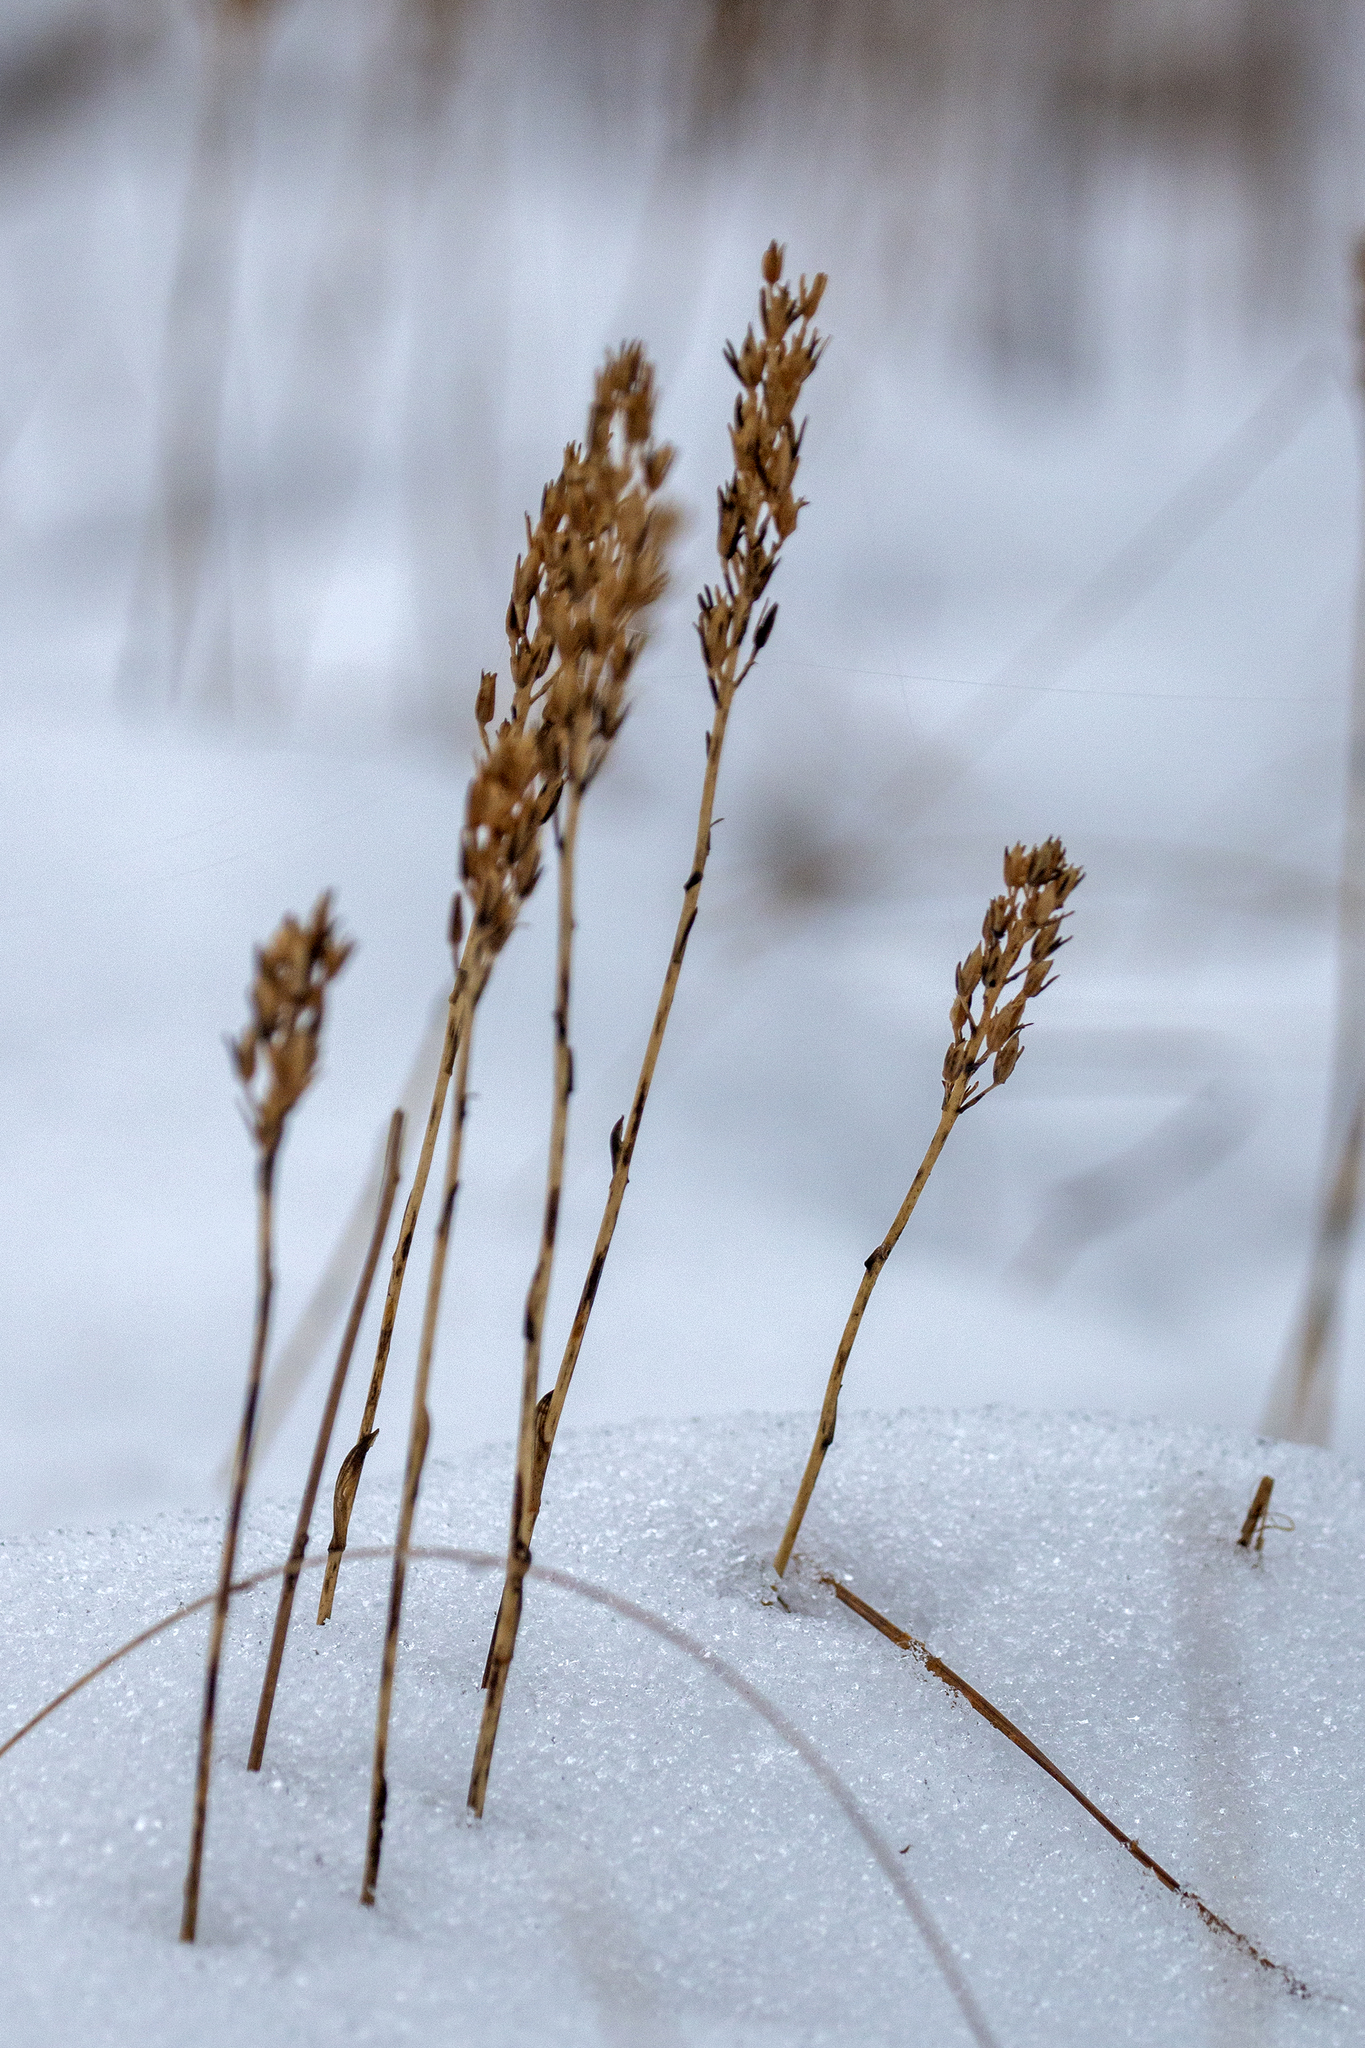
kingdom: Plantae
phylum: Tracheophyta
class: Liliopsida
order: Dioscoreales
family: Nartheciaceae
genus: Narthecium
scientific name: Narthecium ossifragum
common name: Bog asphodel
